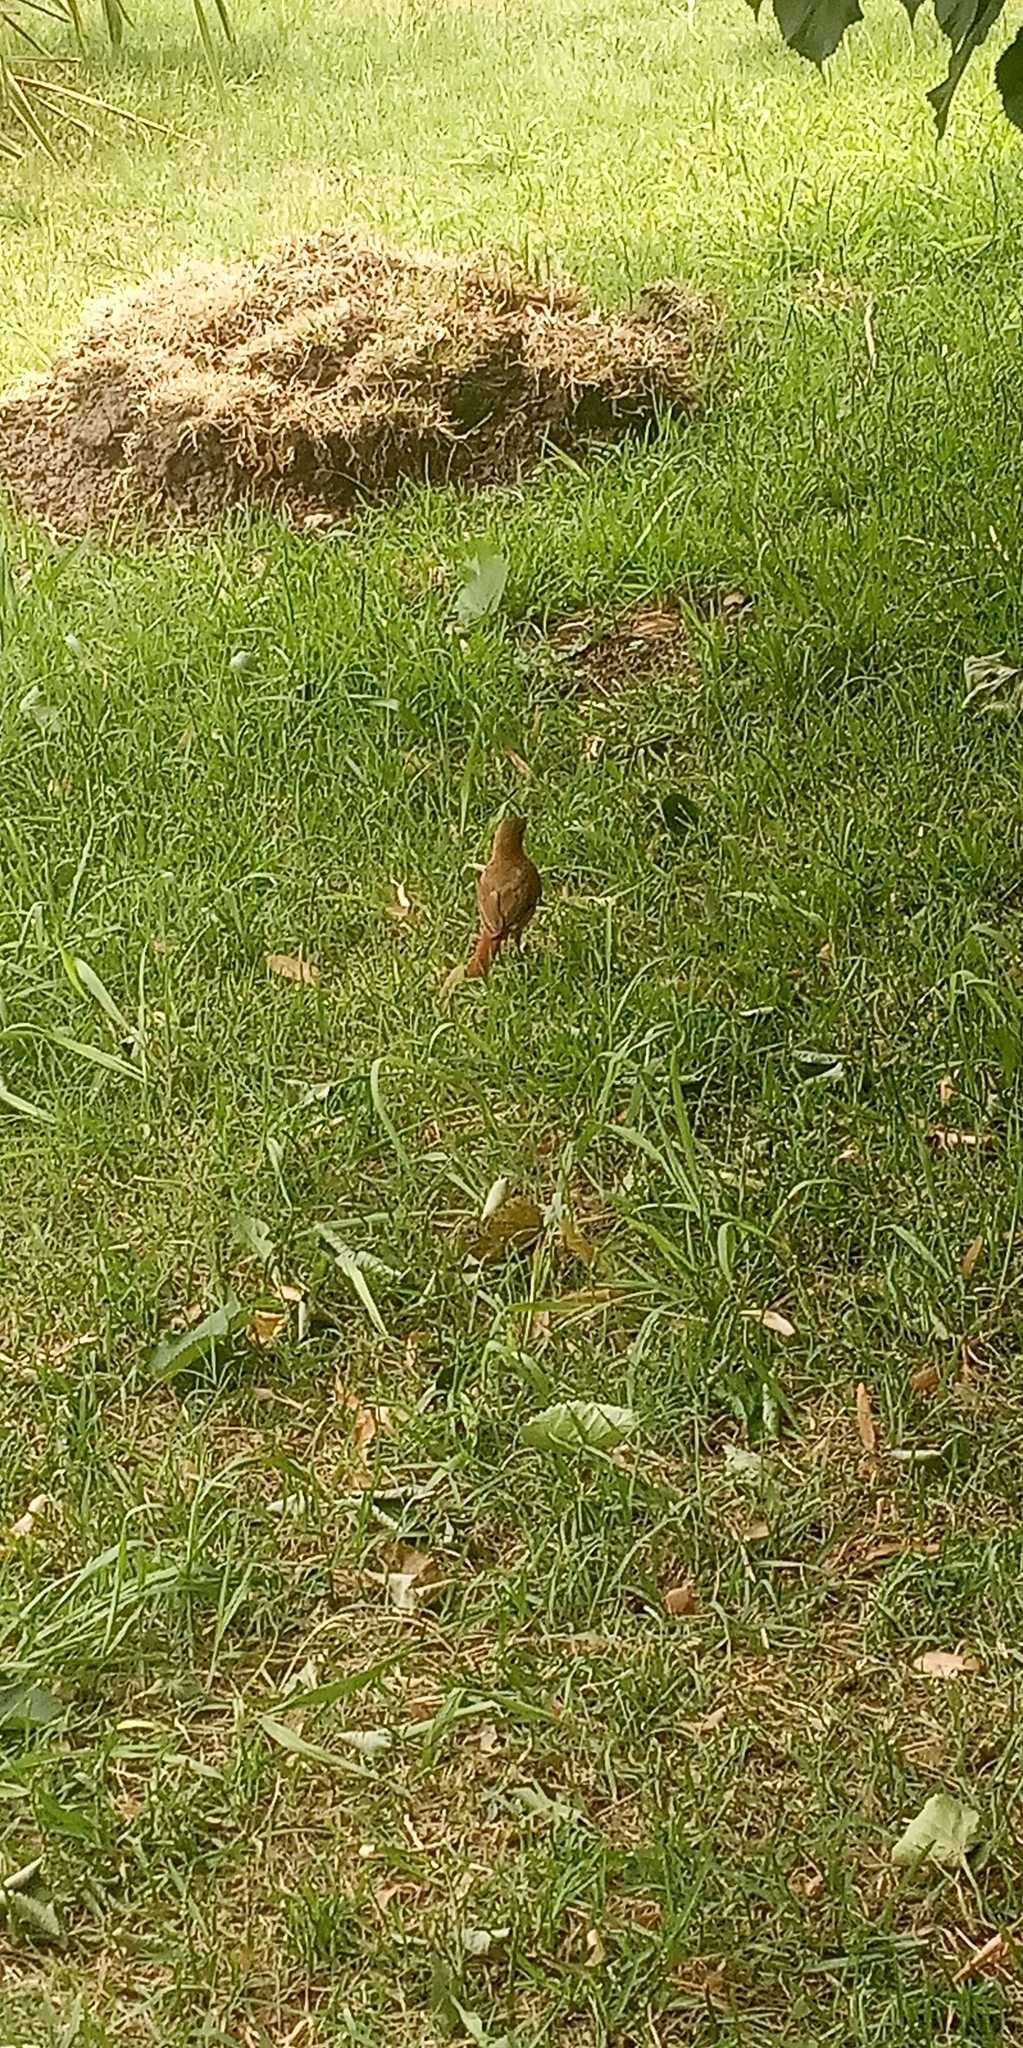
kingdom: Animalia
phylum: Chordata
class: Aves
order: Passeriformes
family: Furnariidae
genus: Furnarius
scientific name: Furnarius rufus
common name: Rufous hornero
